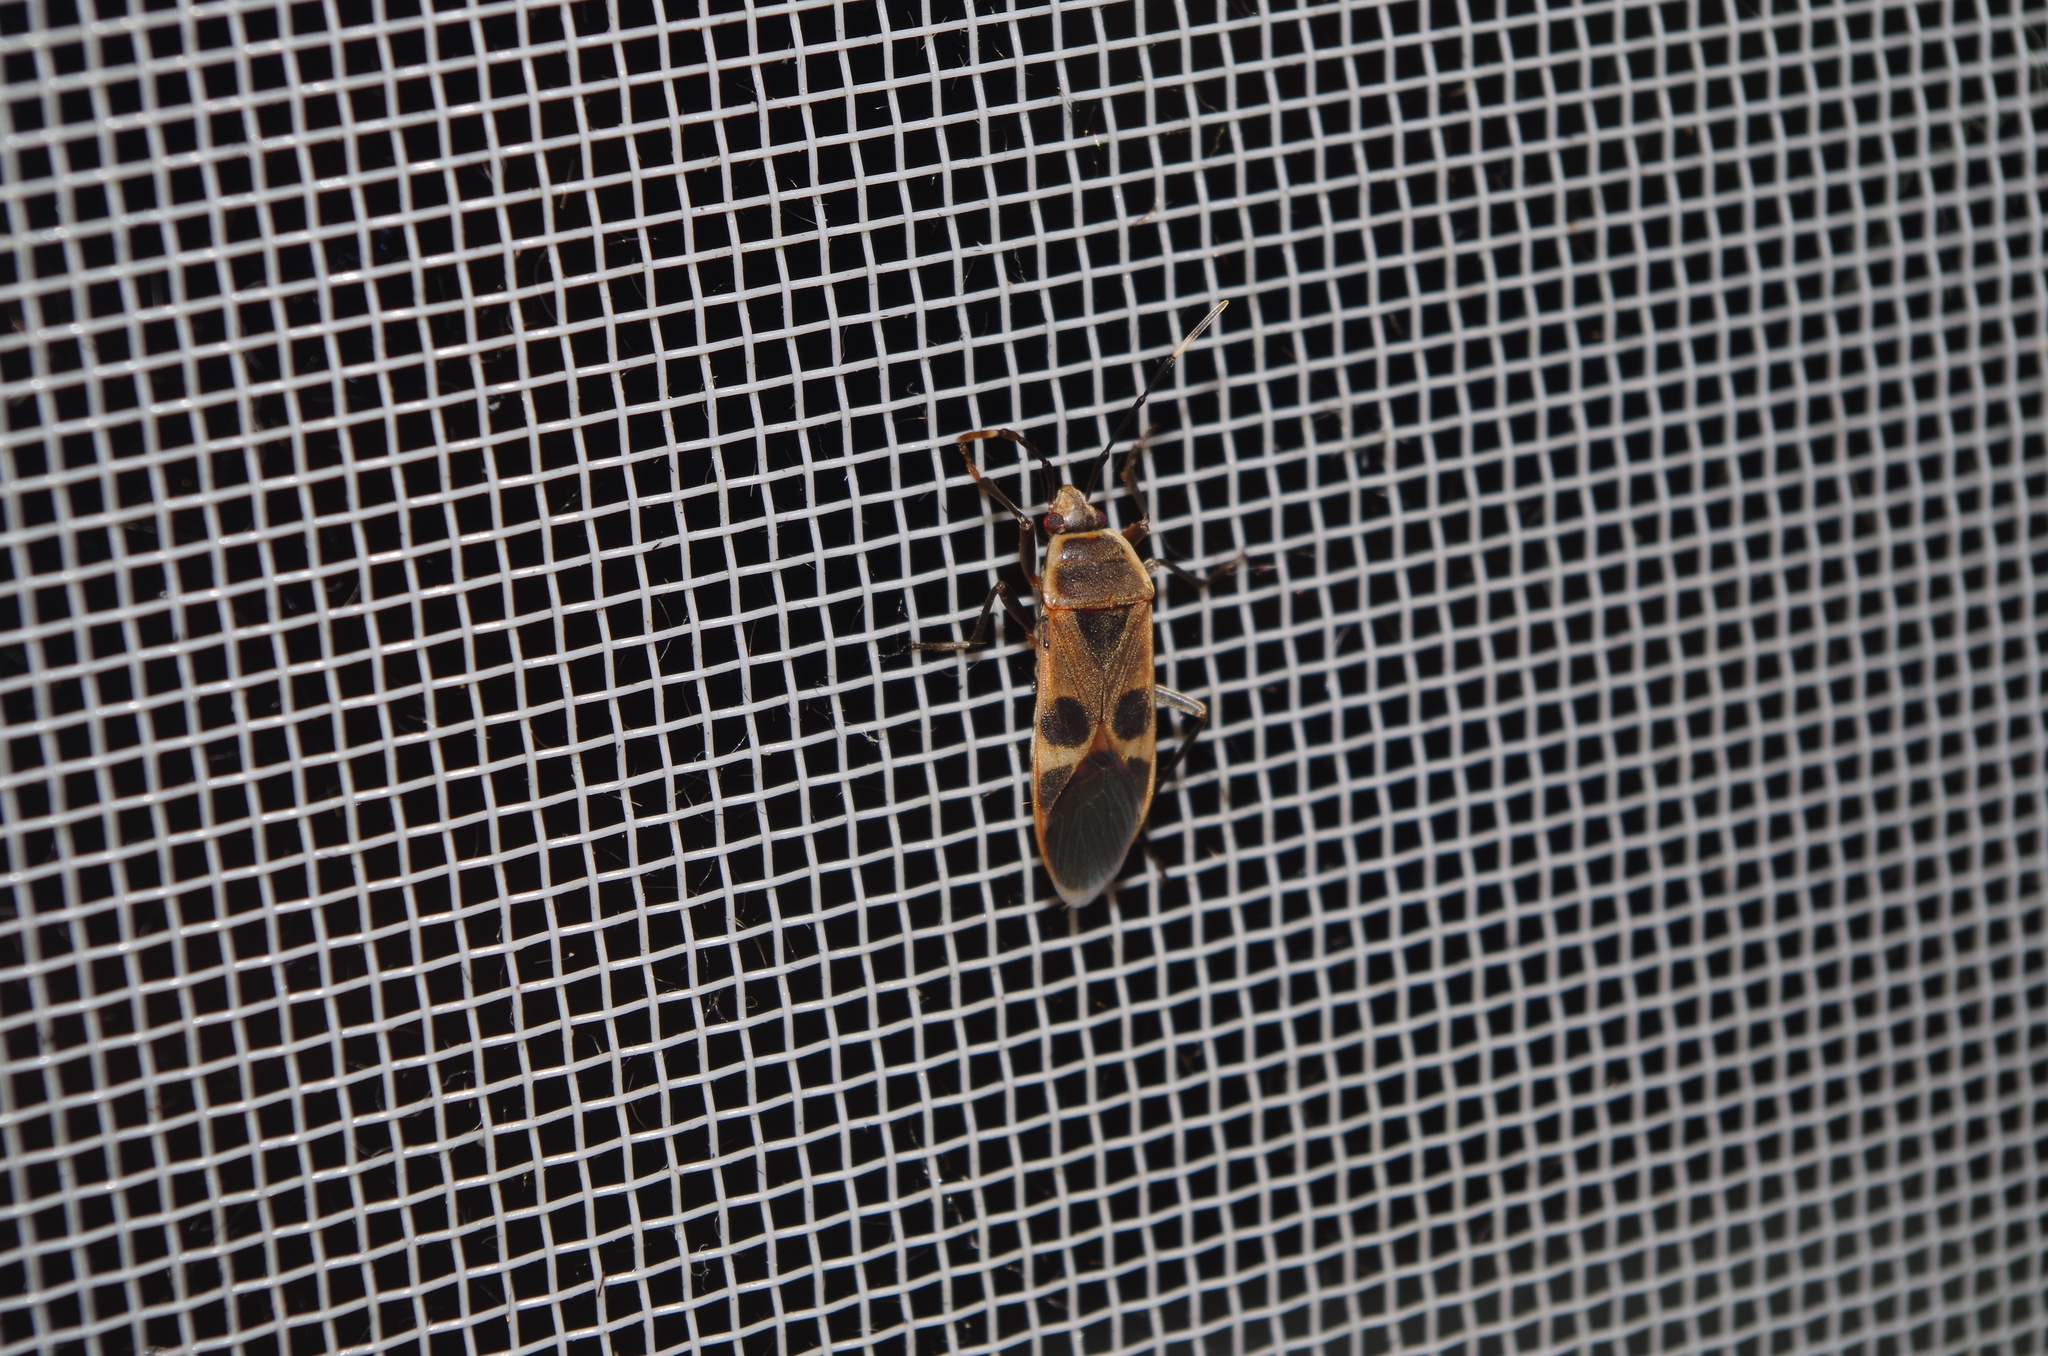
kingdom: Animalia
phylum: Arthropoda
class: Insecta
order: Hemiptera
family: Largidae
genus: Physopelta
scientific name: Physopelta gutta
